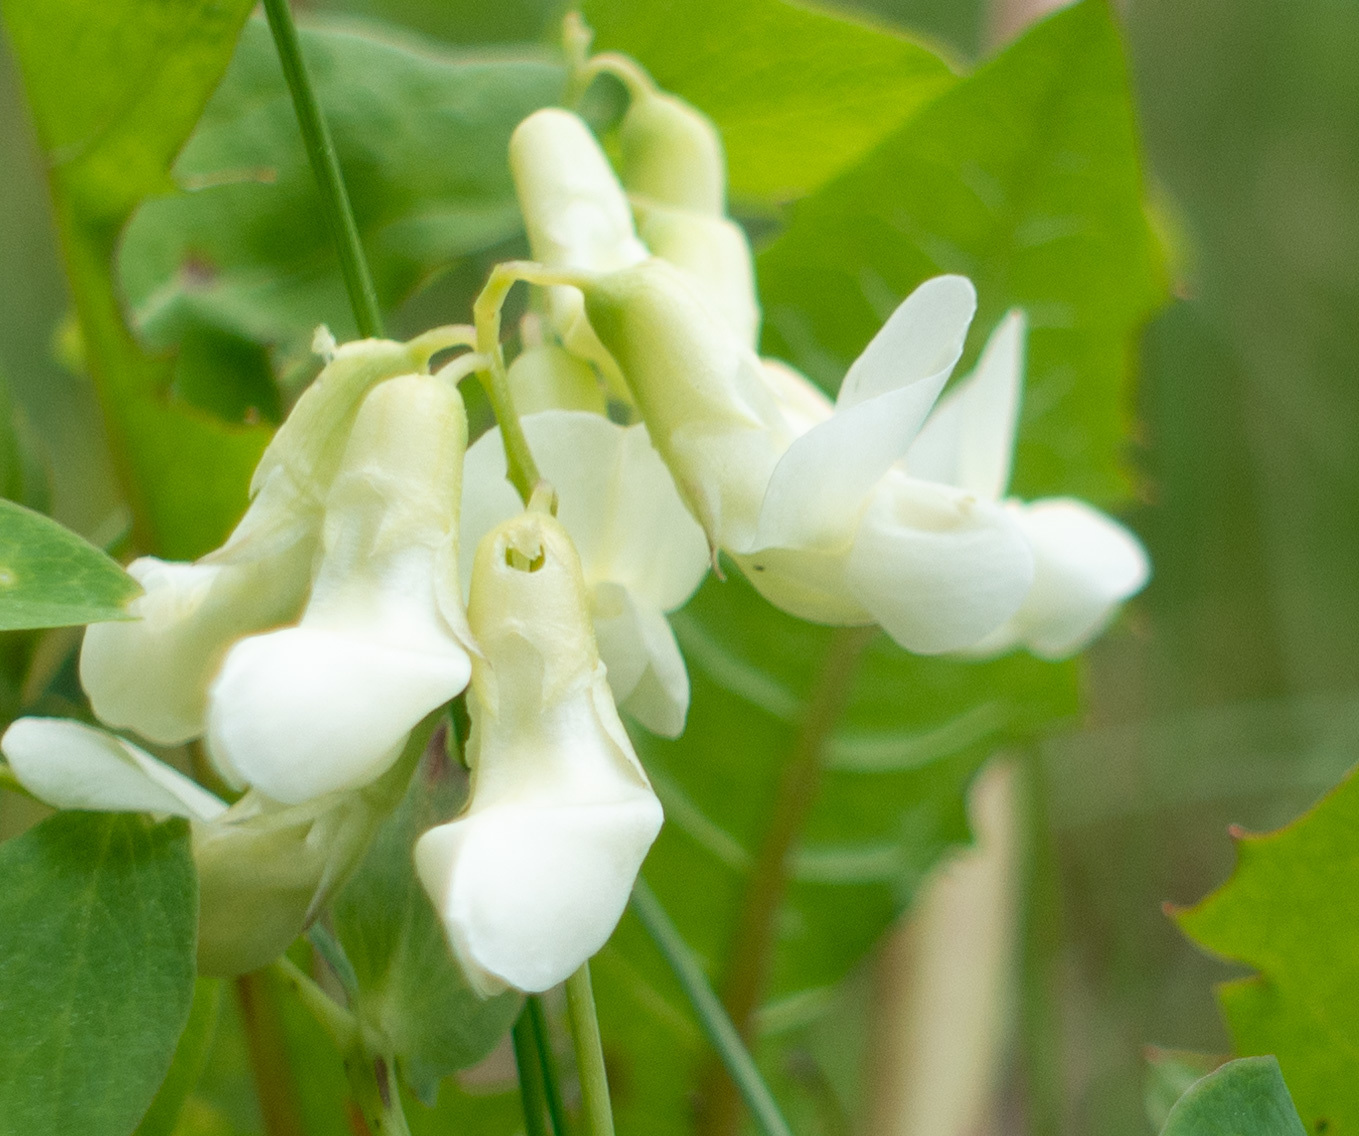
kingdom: Plantae
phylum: Tracheophyta
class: Magnoliopsida
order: Fabales
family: Fabaceae
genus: Lathyrus
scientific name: Lathyrus ochroleucus
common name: Pale vetchling
